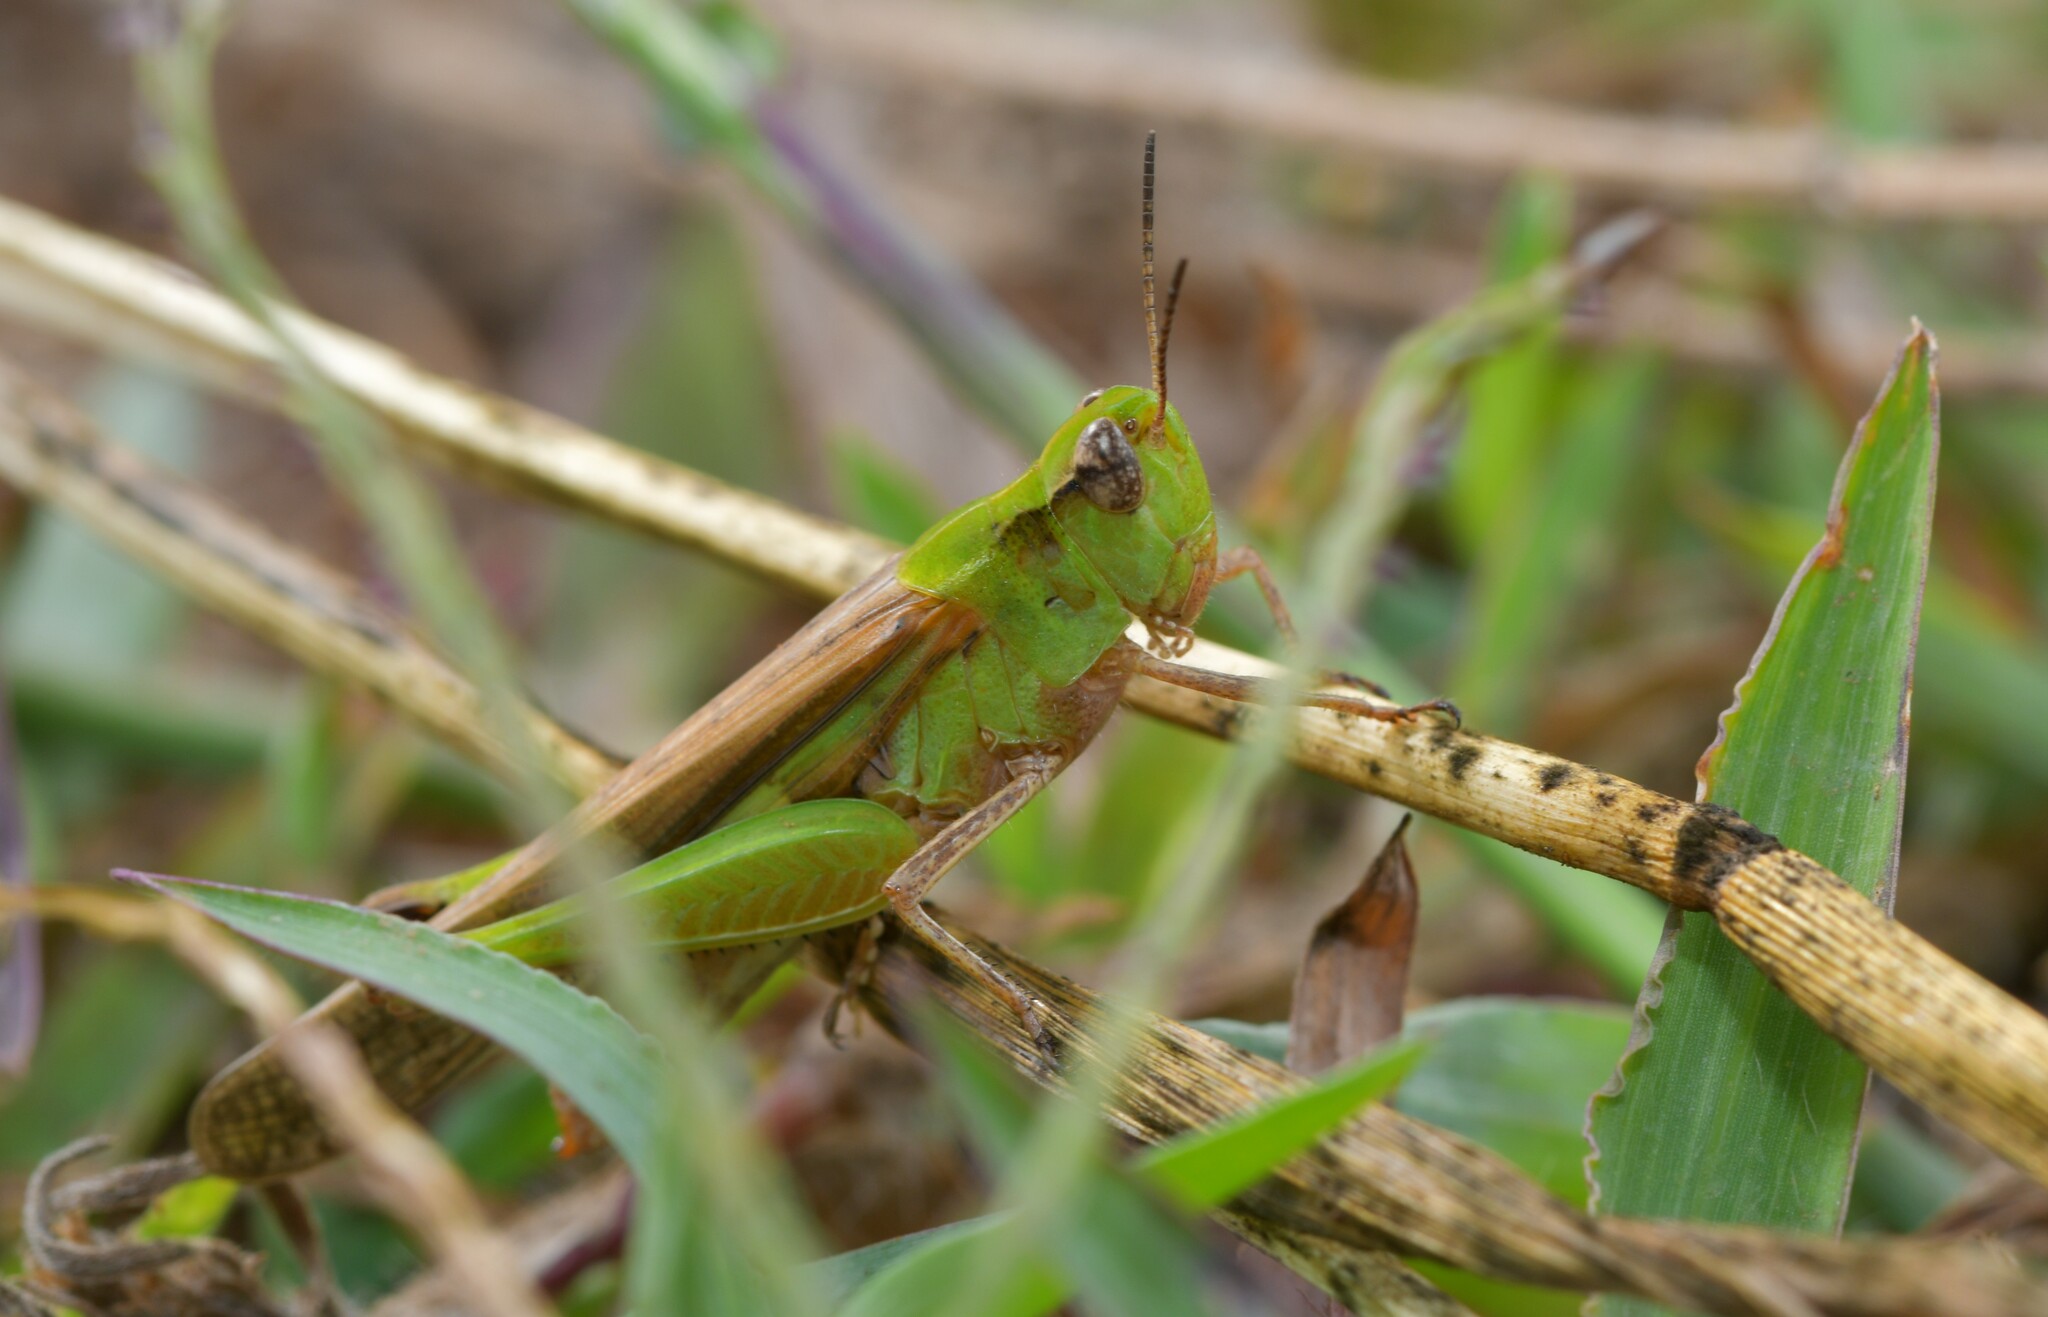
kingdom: Animalia
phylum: Arthropoda
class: Insecta
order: Orthoptera
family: Acrididae
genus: Aiolopus
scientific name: Aiolopus puissanti
